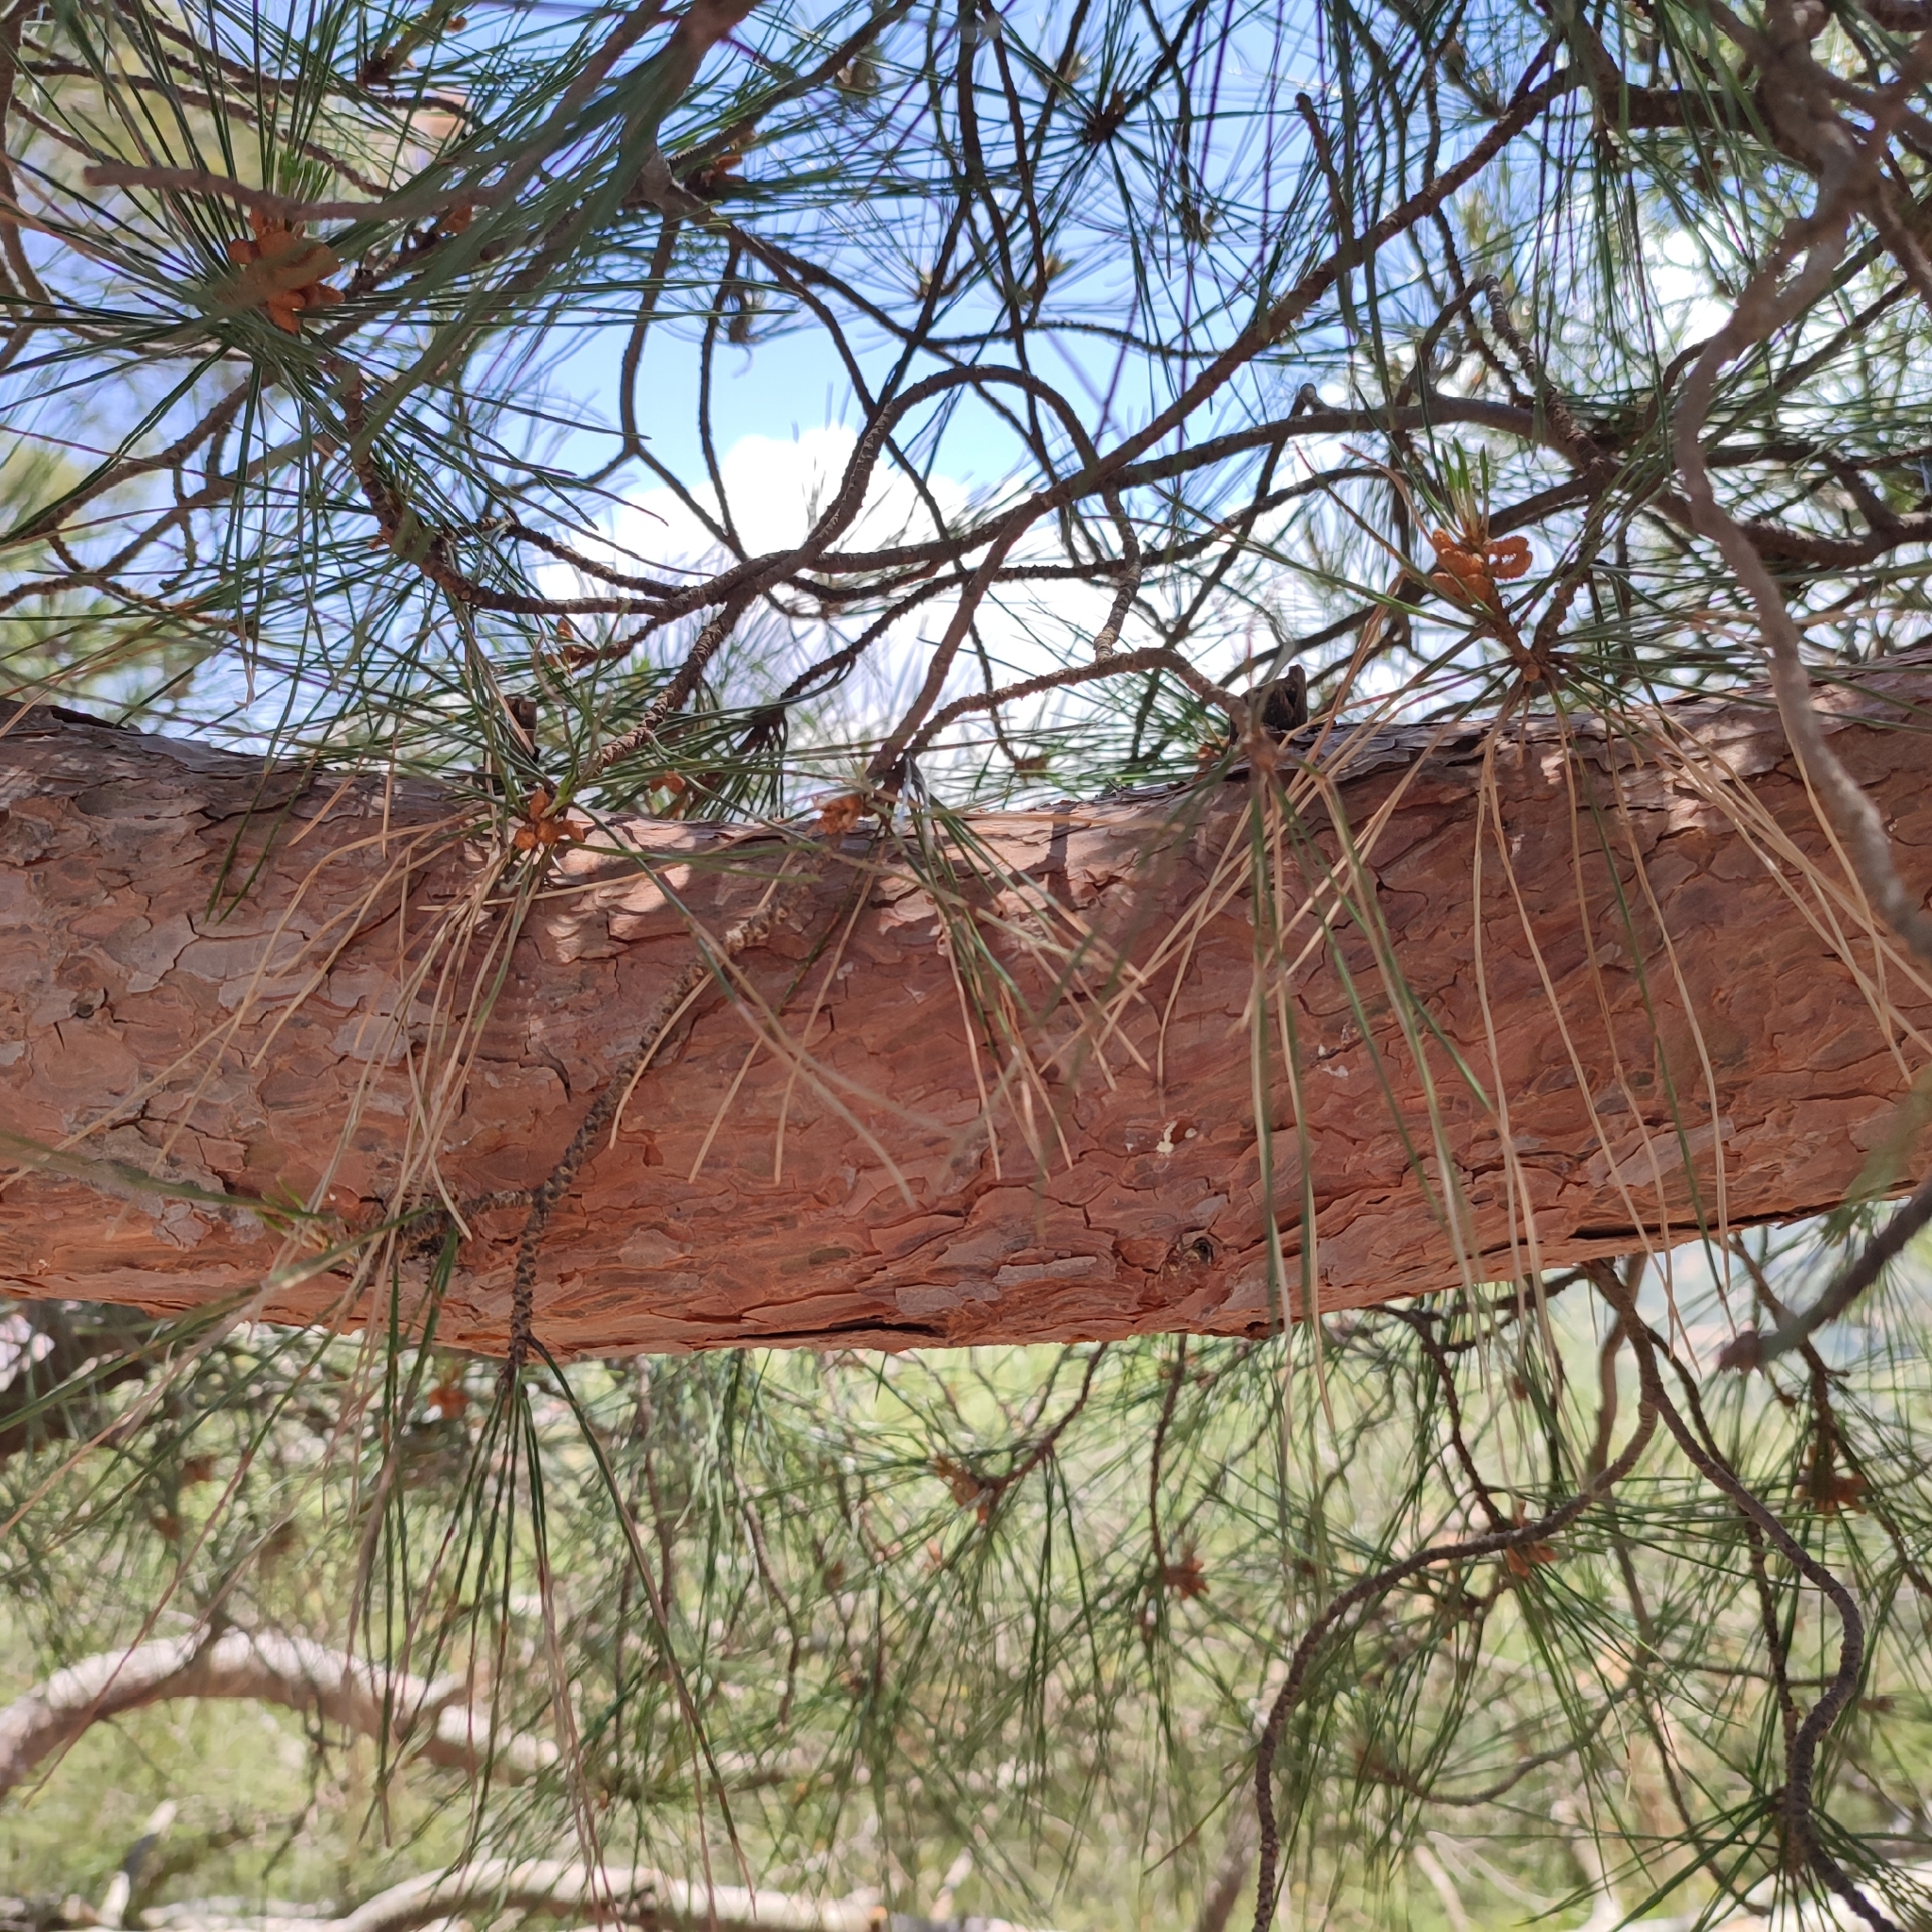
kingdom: Plantae
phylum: Tracheophyta
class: Pinopsida
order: Pinales
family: Pinaceae
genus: Pinus
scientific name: Pinus brutia
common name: Turkish pine
